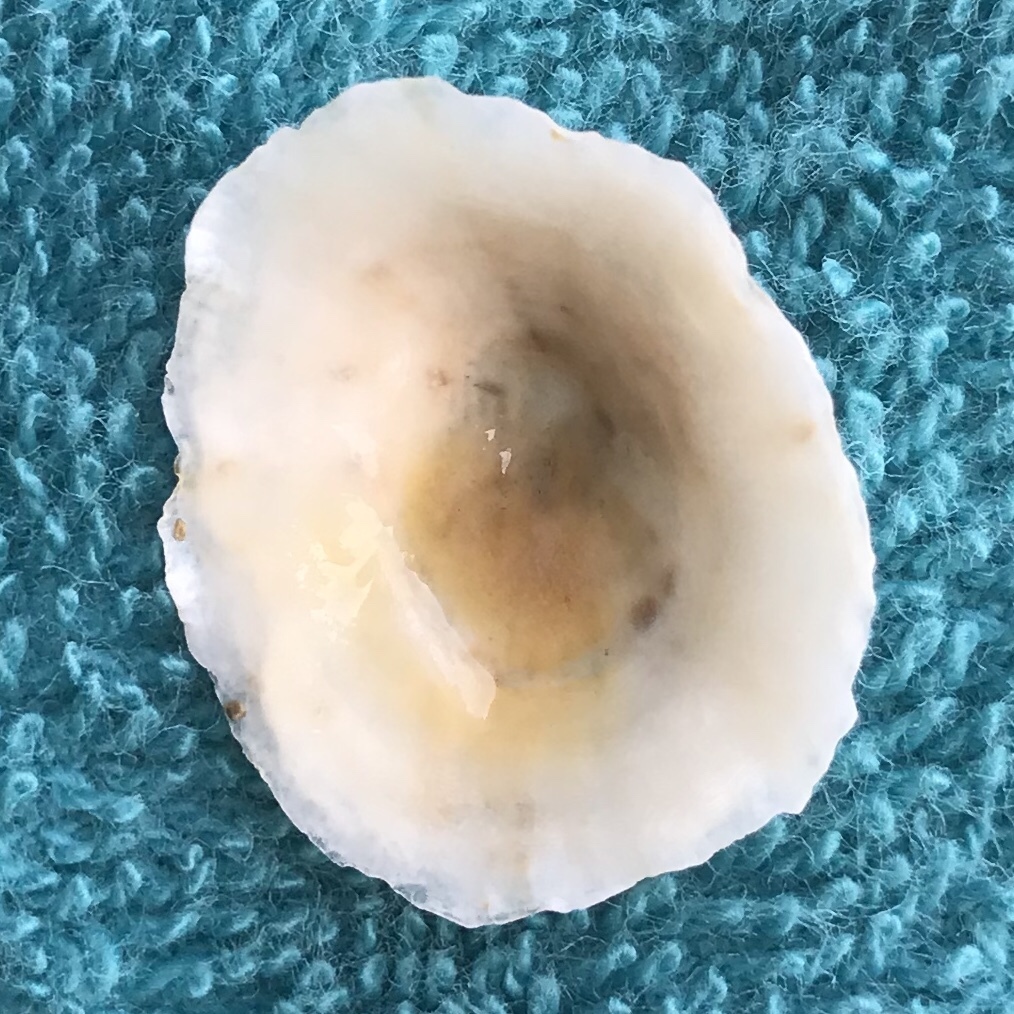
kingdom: Animalia
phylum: Mollusca
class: Gastropoda
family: Patellidae
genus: Patella
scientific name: Patella caerulea
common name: Mediterranean limpet
